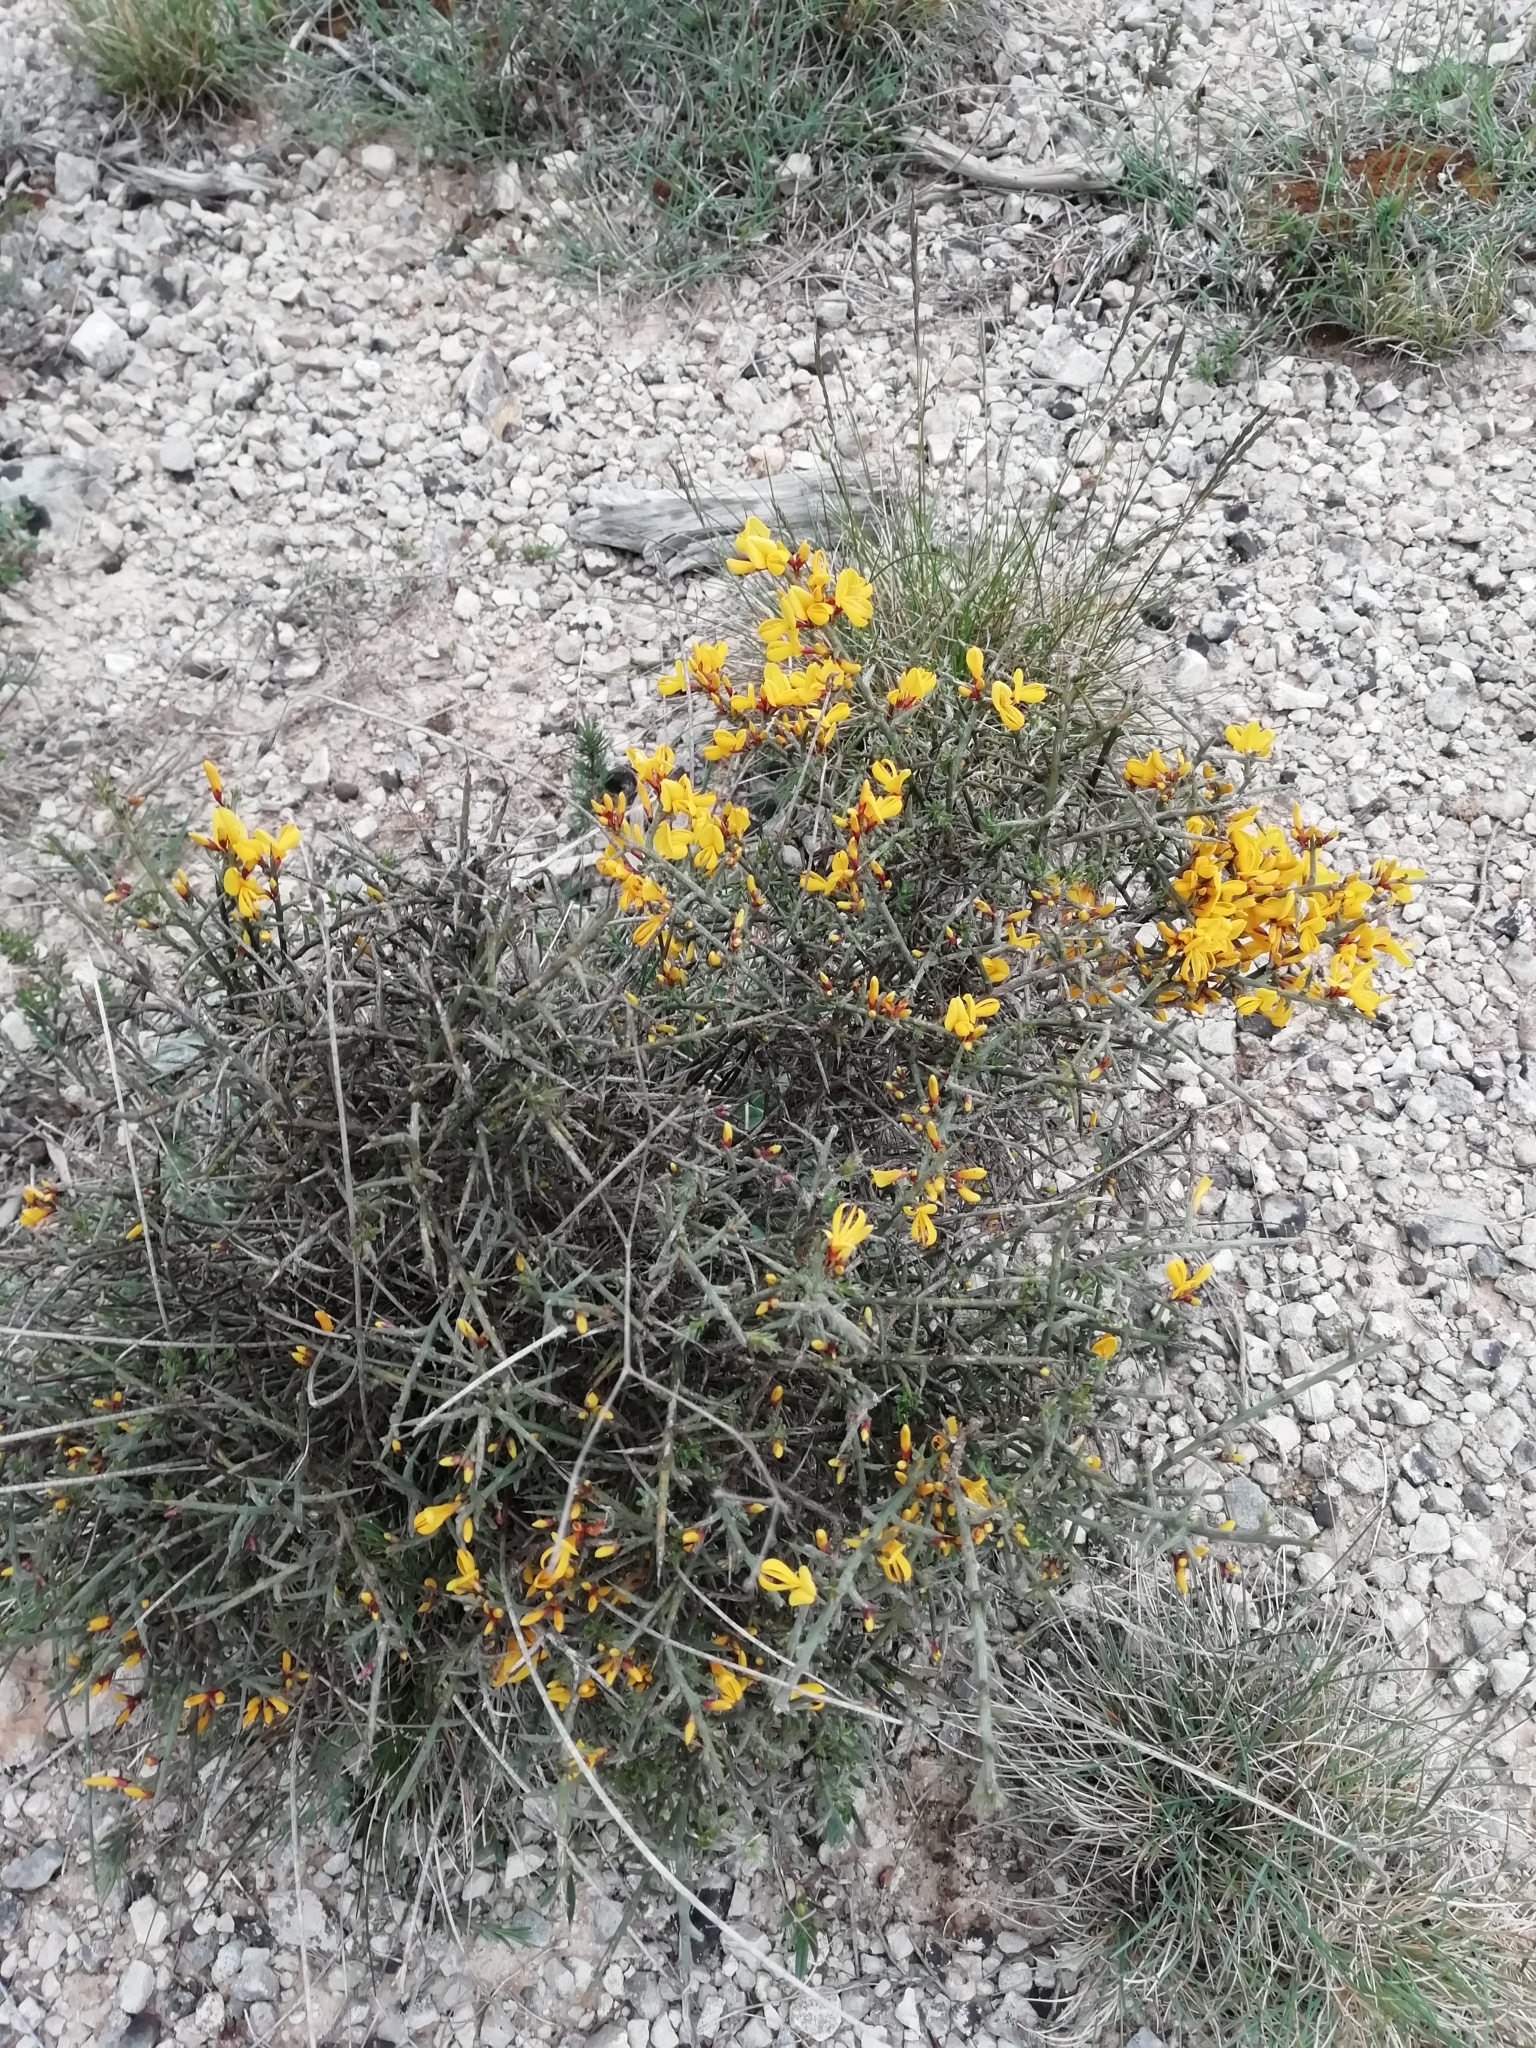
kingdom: Plantae
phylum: Tracheophyta
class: Magnoliopsida
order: Fabales
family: Fabaceae
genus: Genista
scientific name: Genista scorpius
